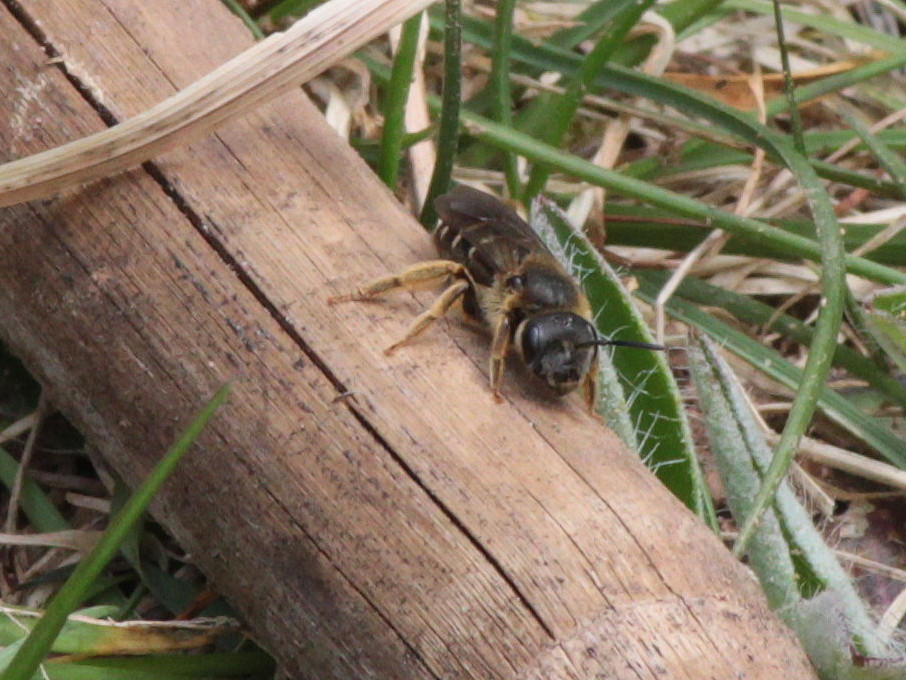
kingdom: Animalia
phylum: Arthropoda
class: Insecta
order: Hymenoptera
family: Halictidae
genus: Halictus
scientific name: Halictus rubicundus
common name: Orange-legged furrow bee
